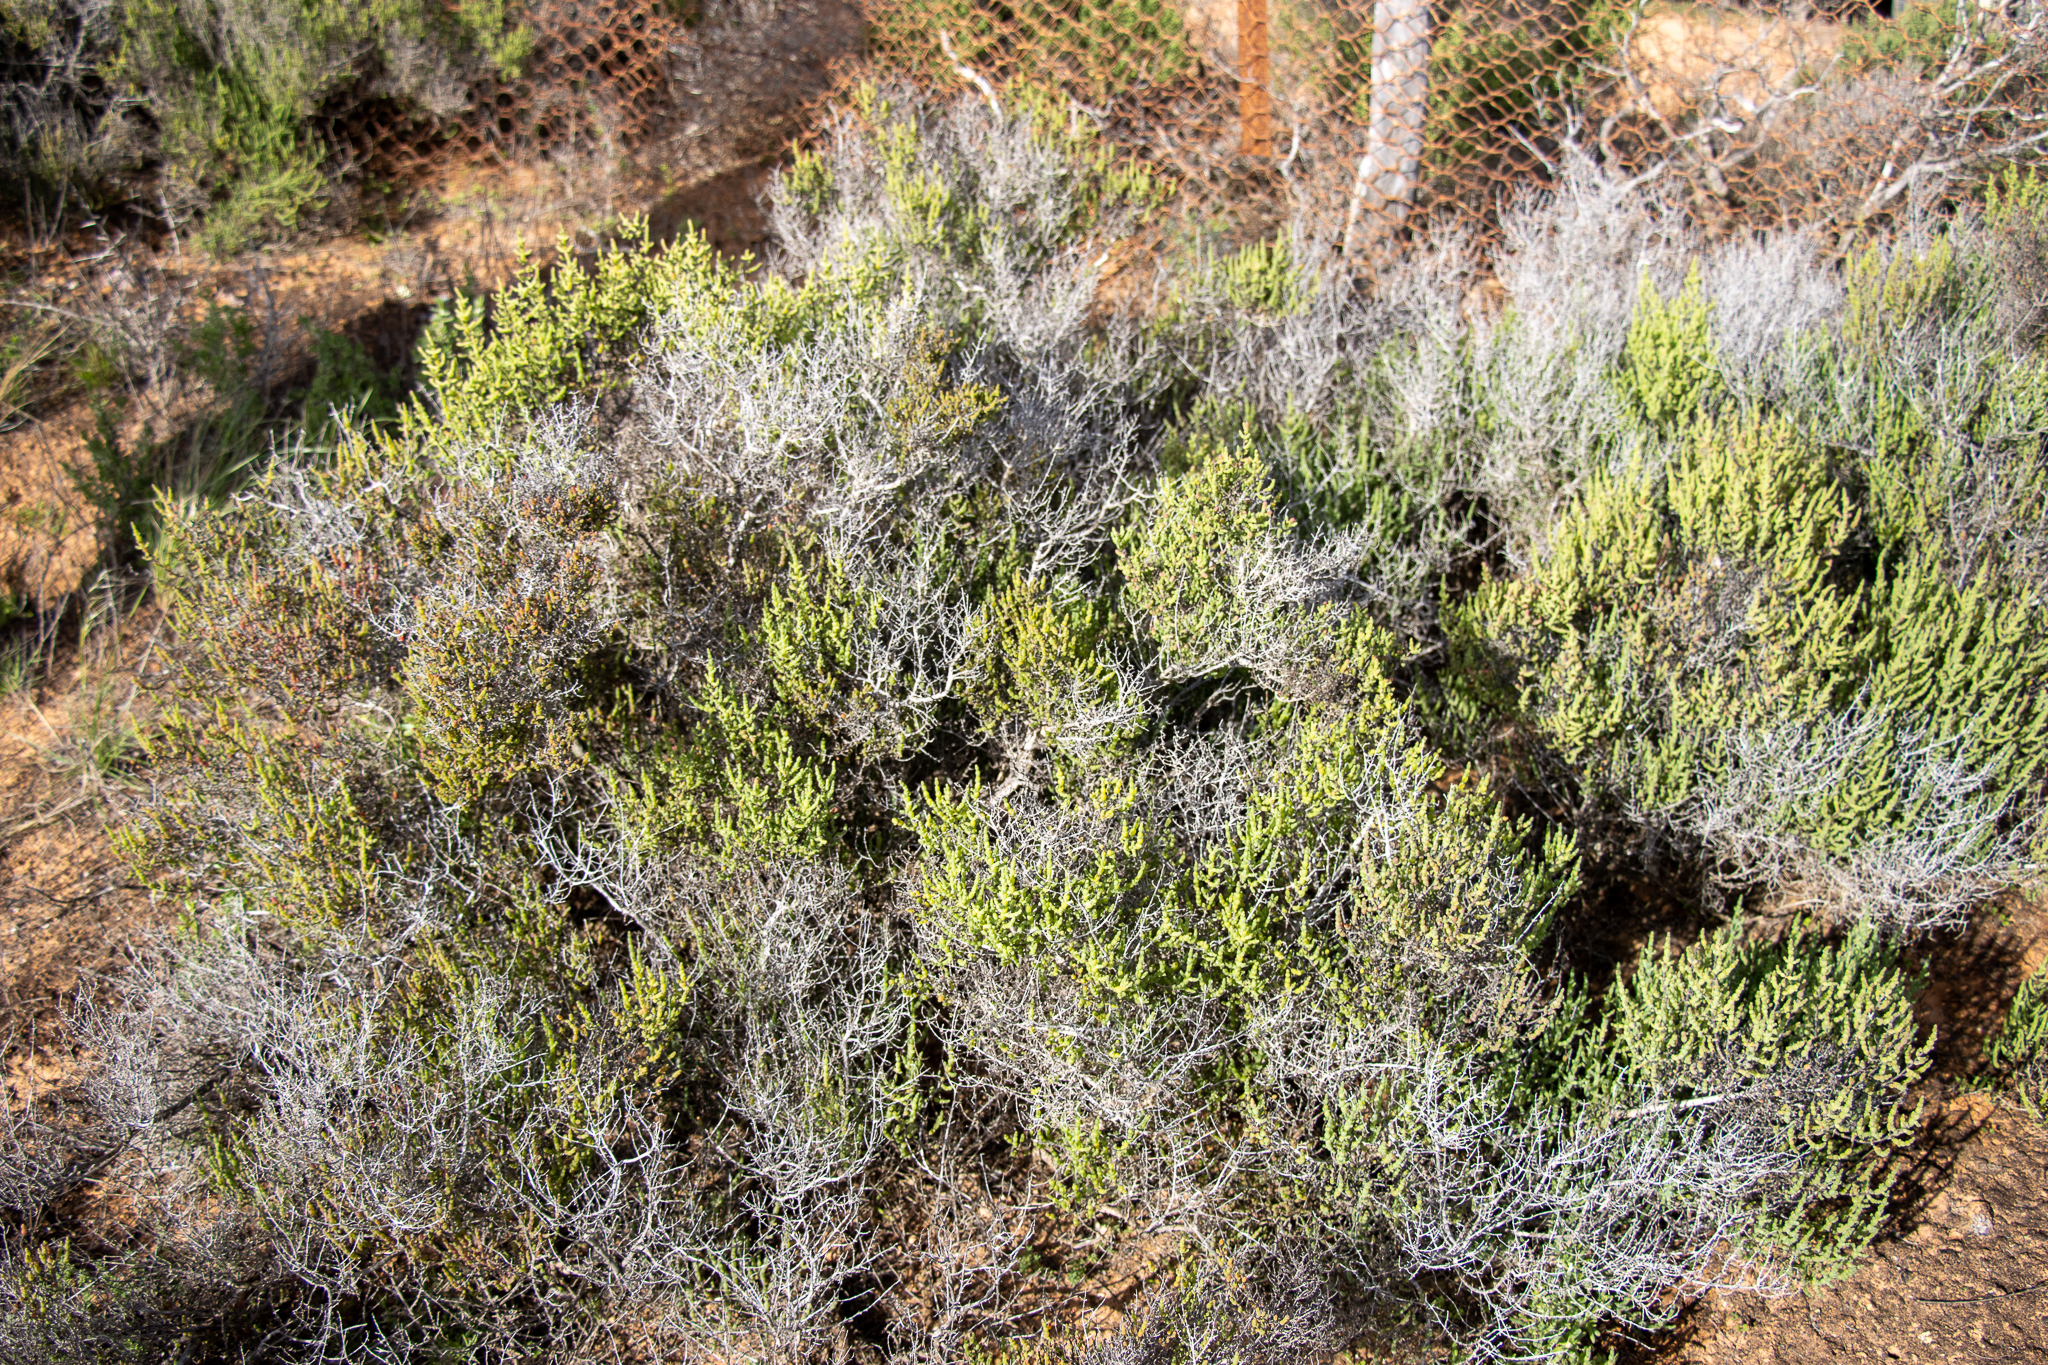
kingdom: Plantae
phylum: Tracheophyta
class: Magnoliopsida
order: Caryophyllales
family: Amaranthaceae
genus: Tecticornia
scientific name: Tecticornia disarticulata
